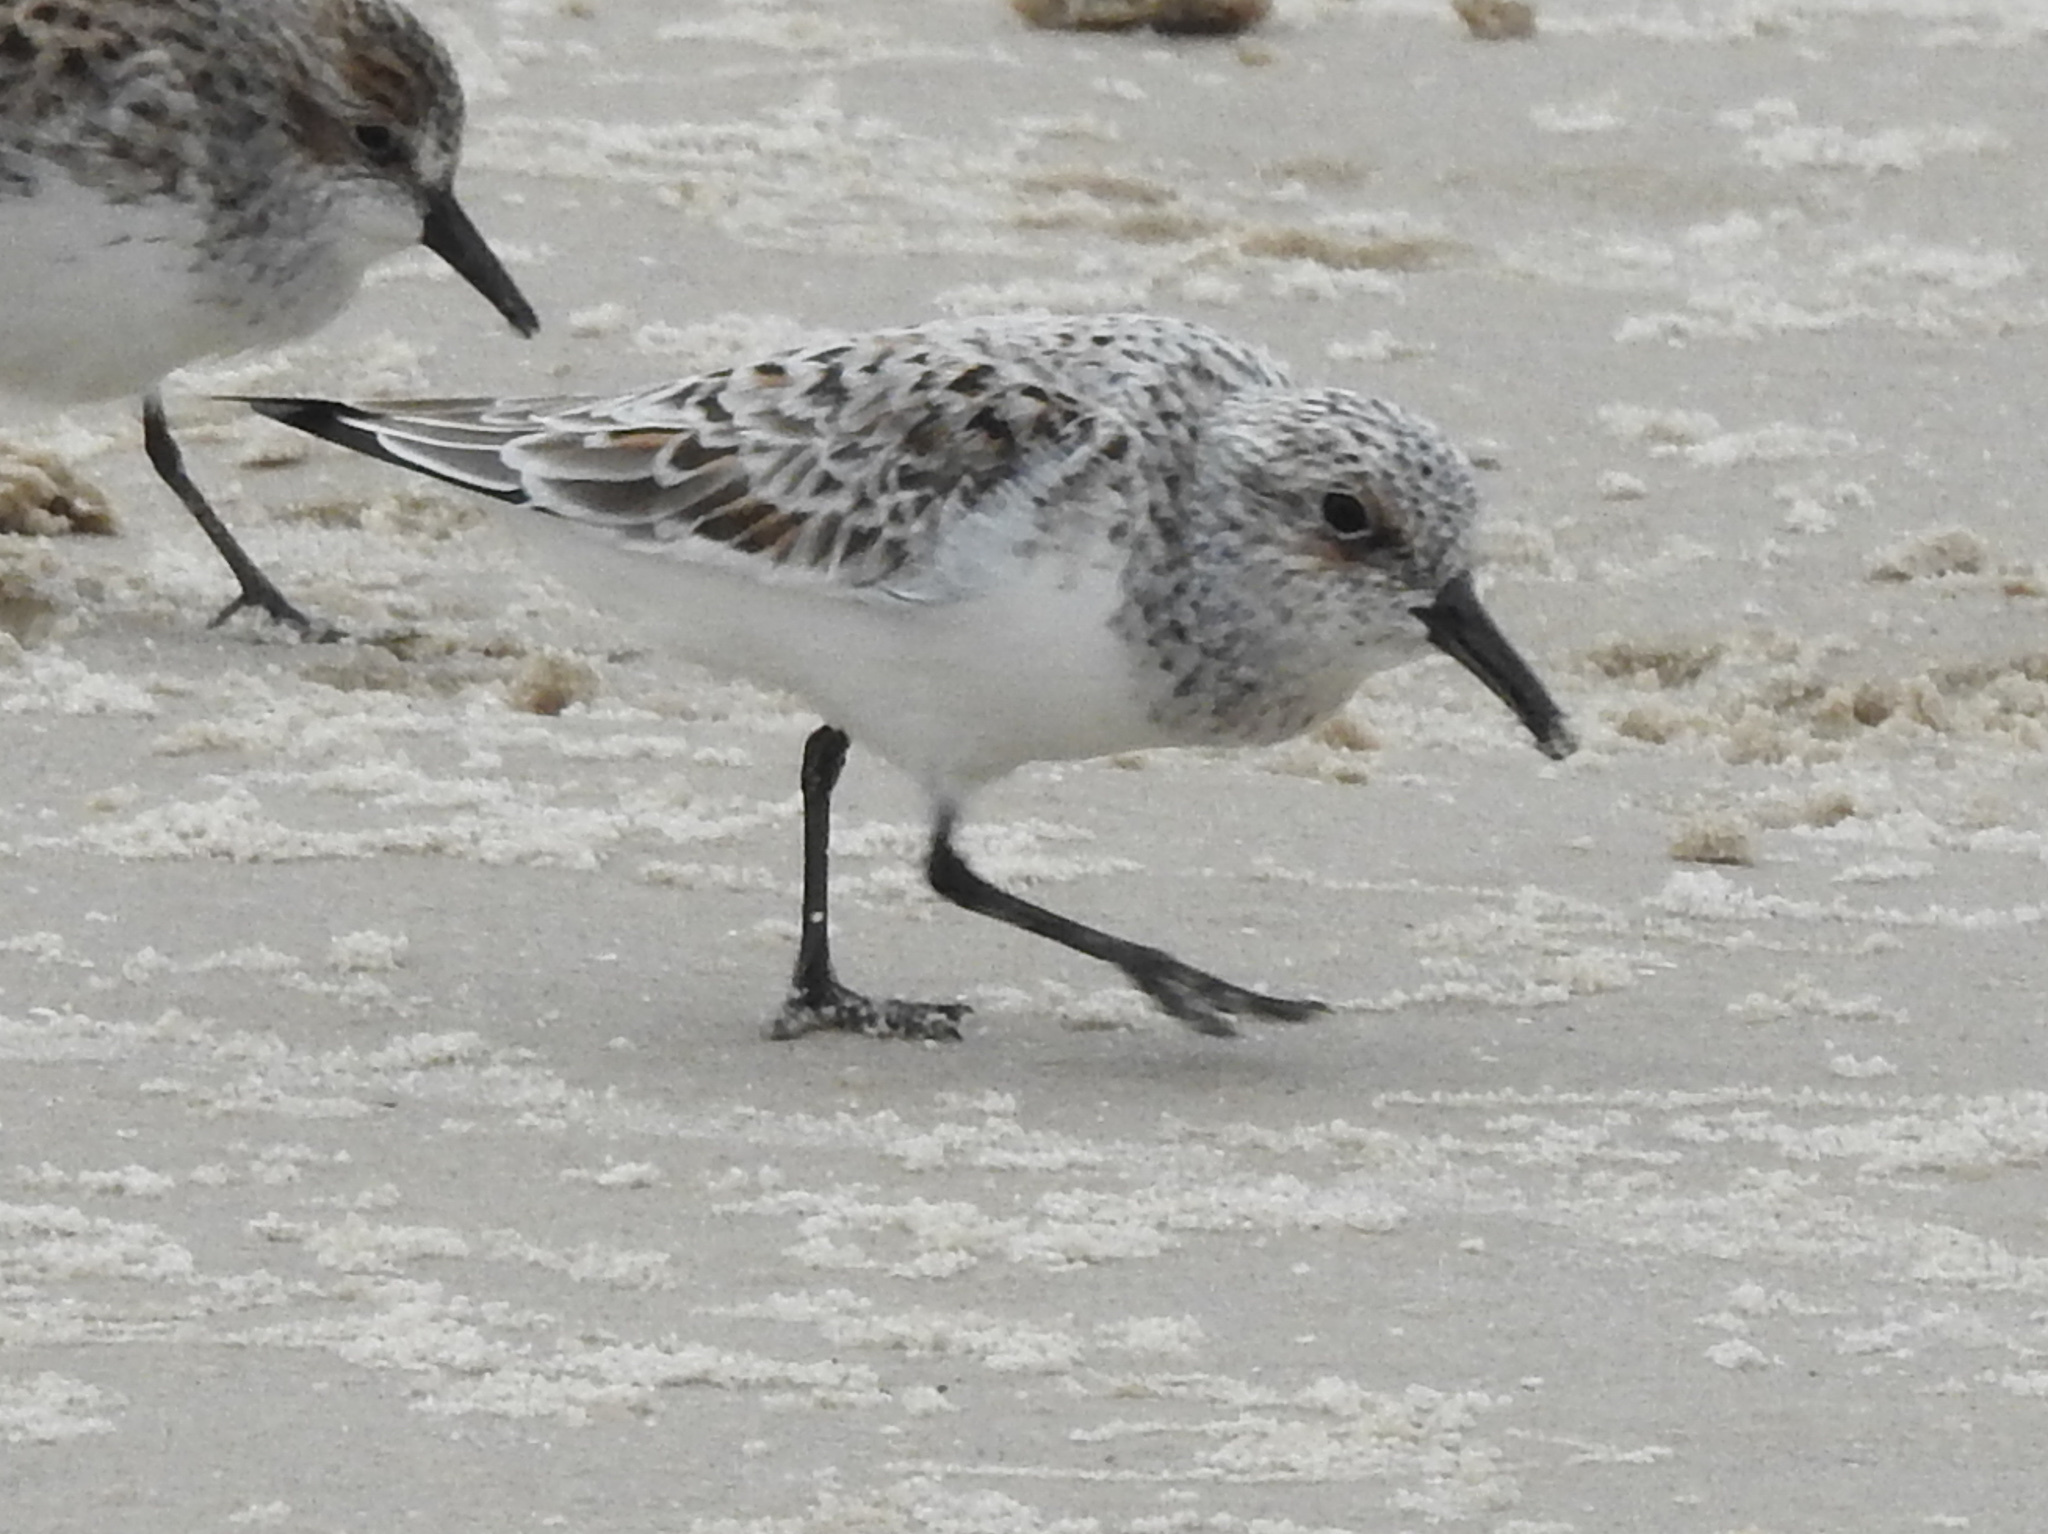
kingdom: Animalia
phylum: Chordata
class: Aves
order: Charadriiformes
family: Scolopacidae
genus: Calidris
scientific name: Calidris alba
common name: Sanderling
